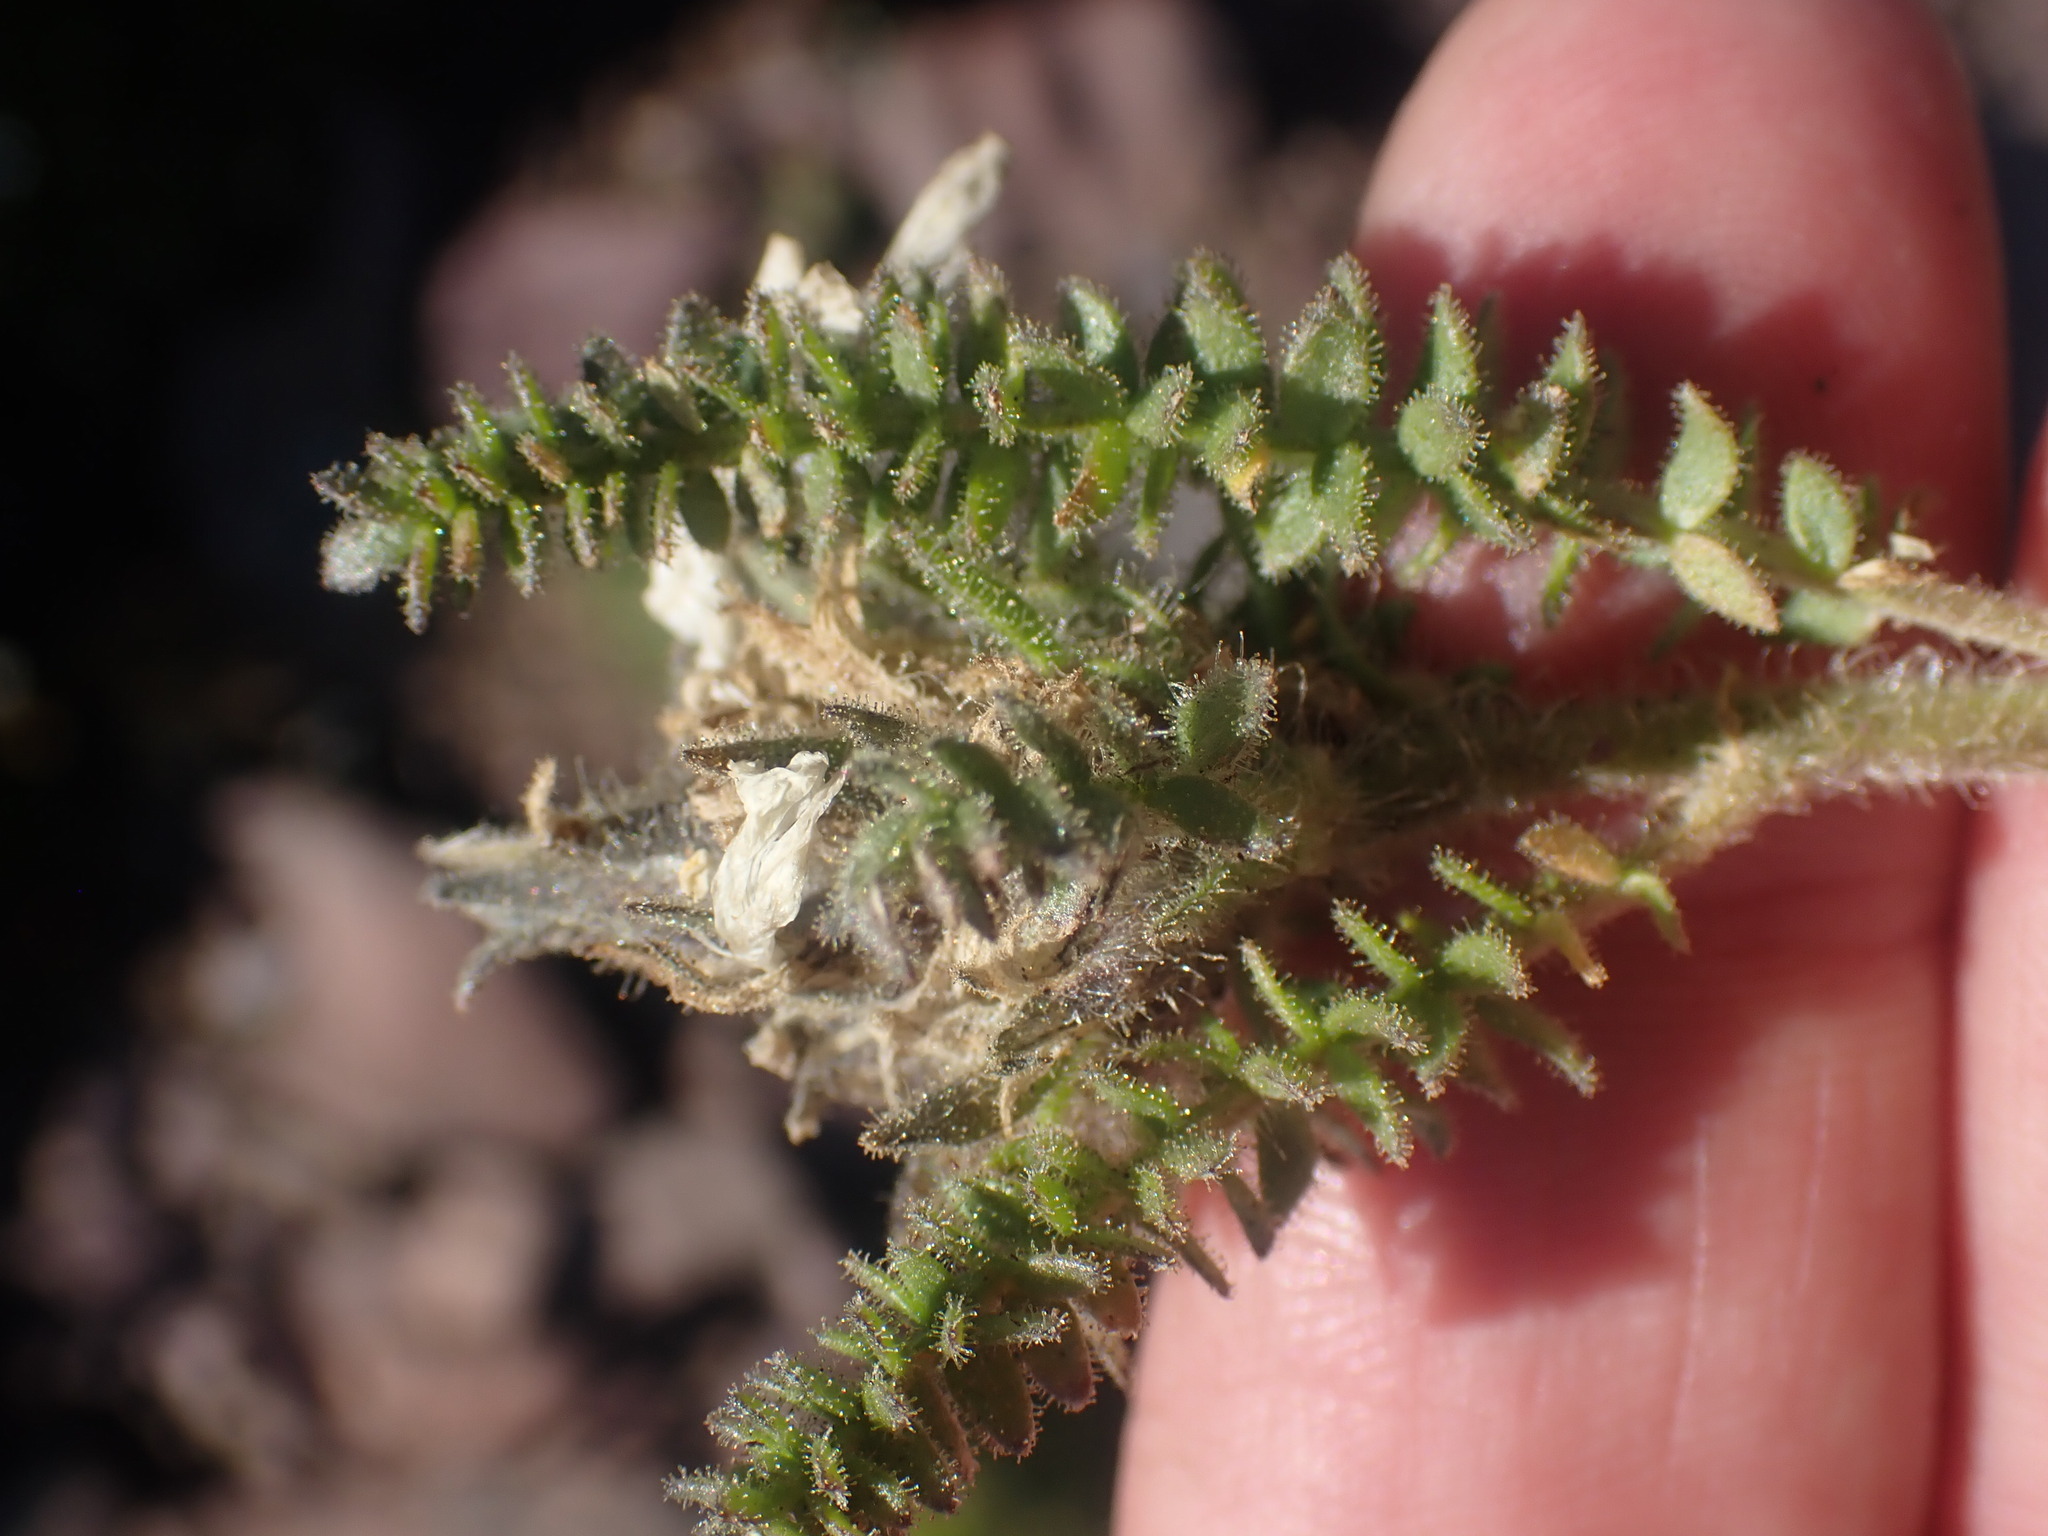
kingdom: Plantae
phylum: Tracheophyta
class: Magnoliopsida
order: Ericales
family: Polemoniaceae
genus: Polemonium
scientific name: Polemonium viscosum
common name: Skunk jacob's-ladder
